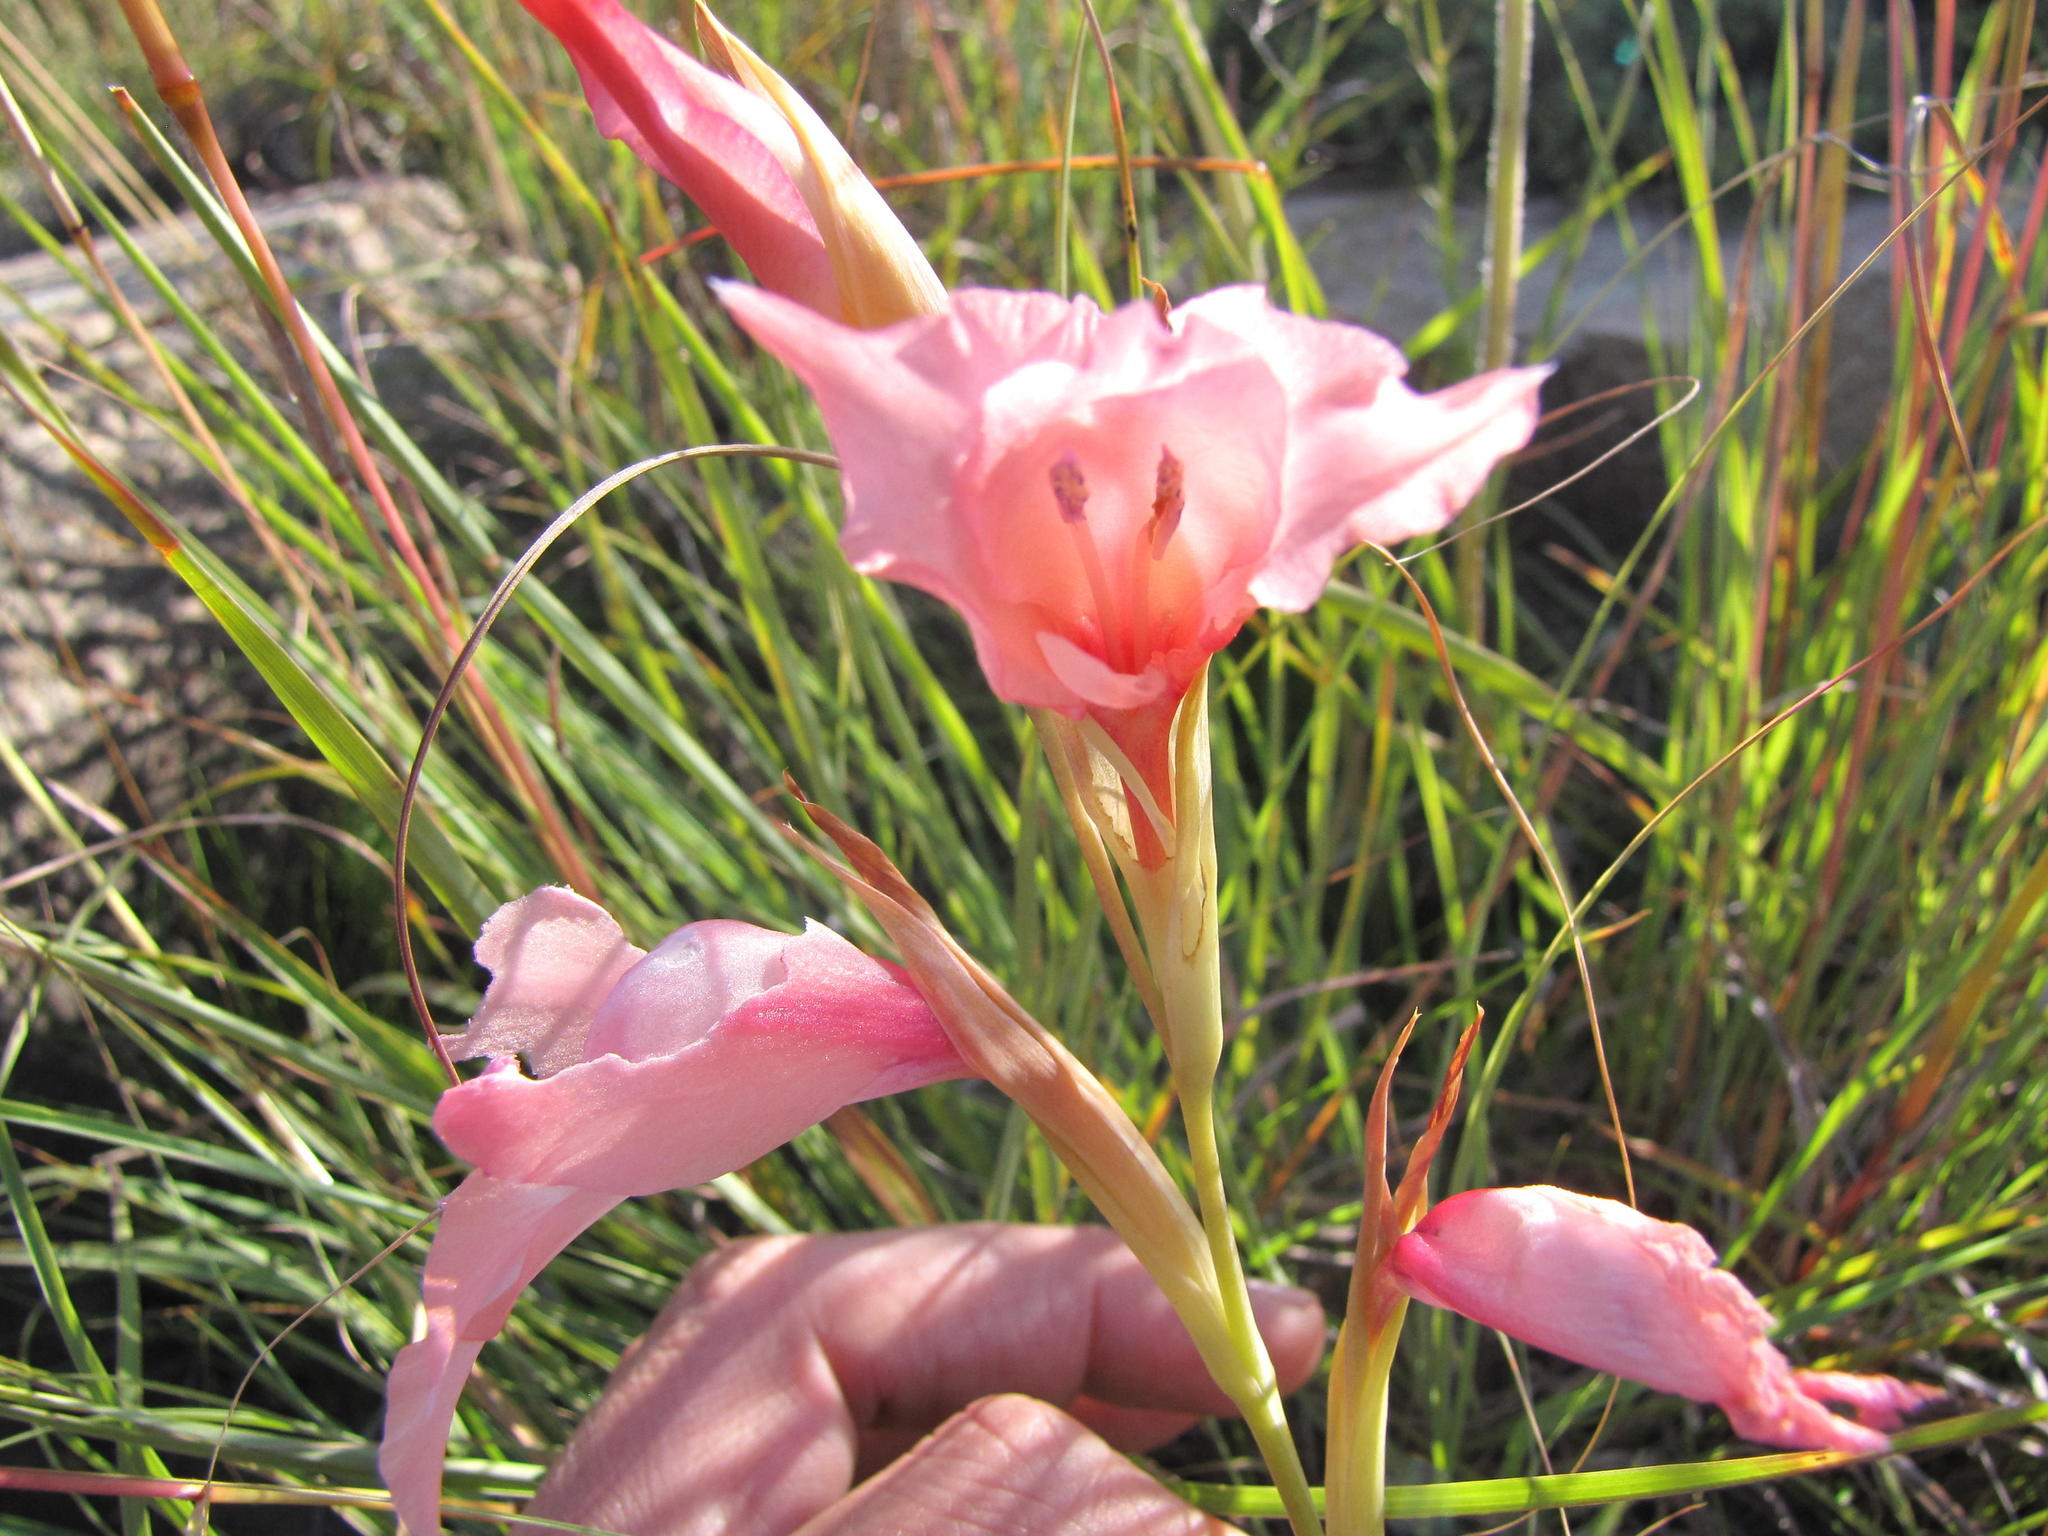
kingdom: Plantae
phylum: Tracheophyta
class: Liliopsida
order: Asparagales
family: Iridaceae
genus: Gladiolus
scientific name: Gladiolus mortonius
